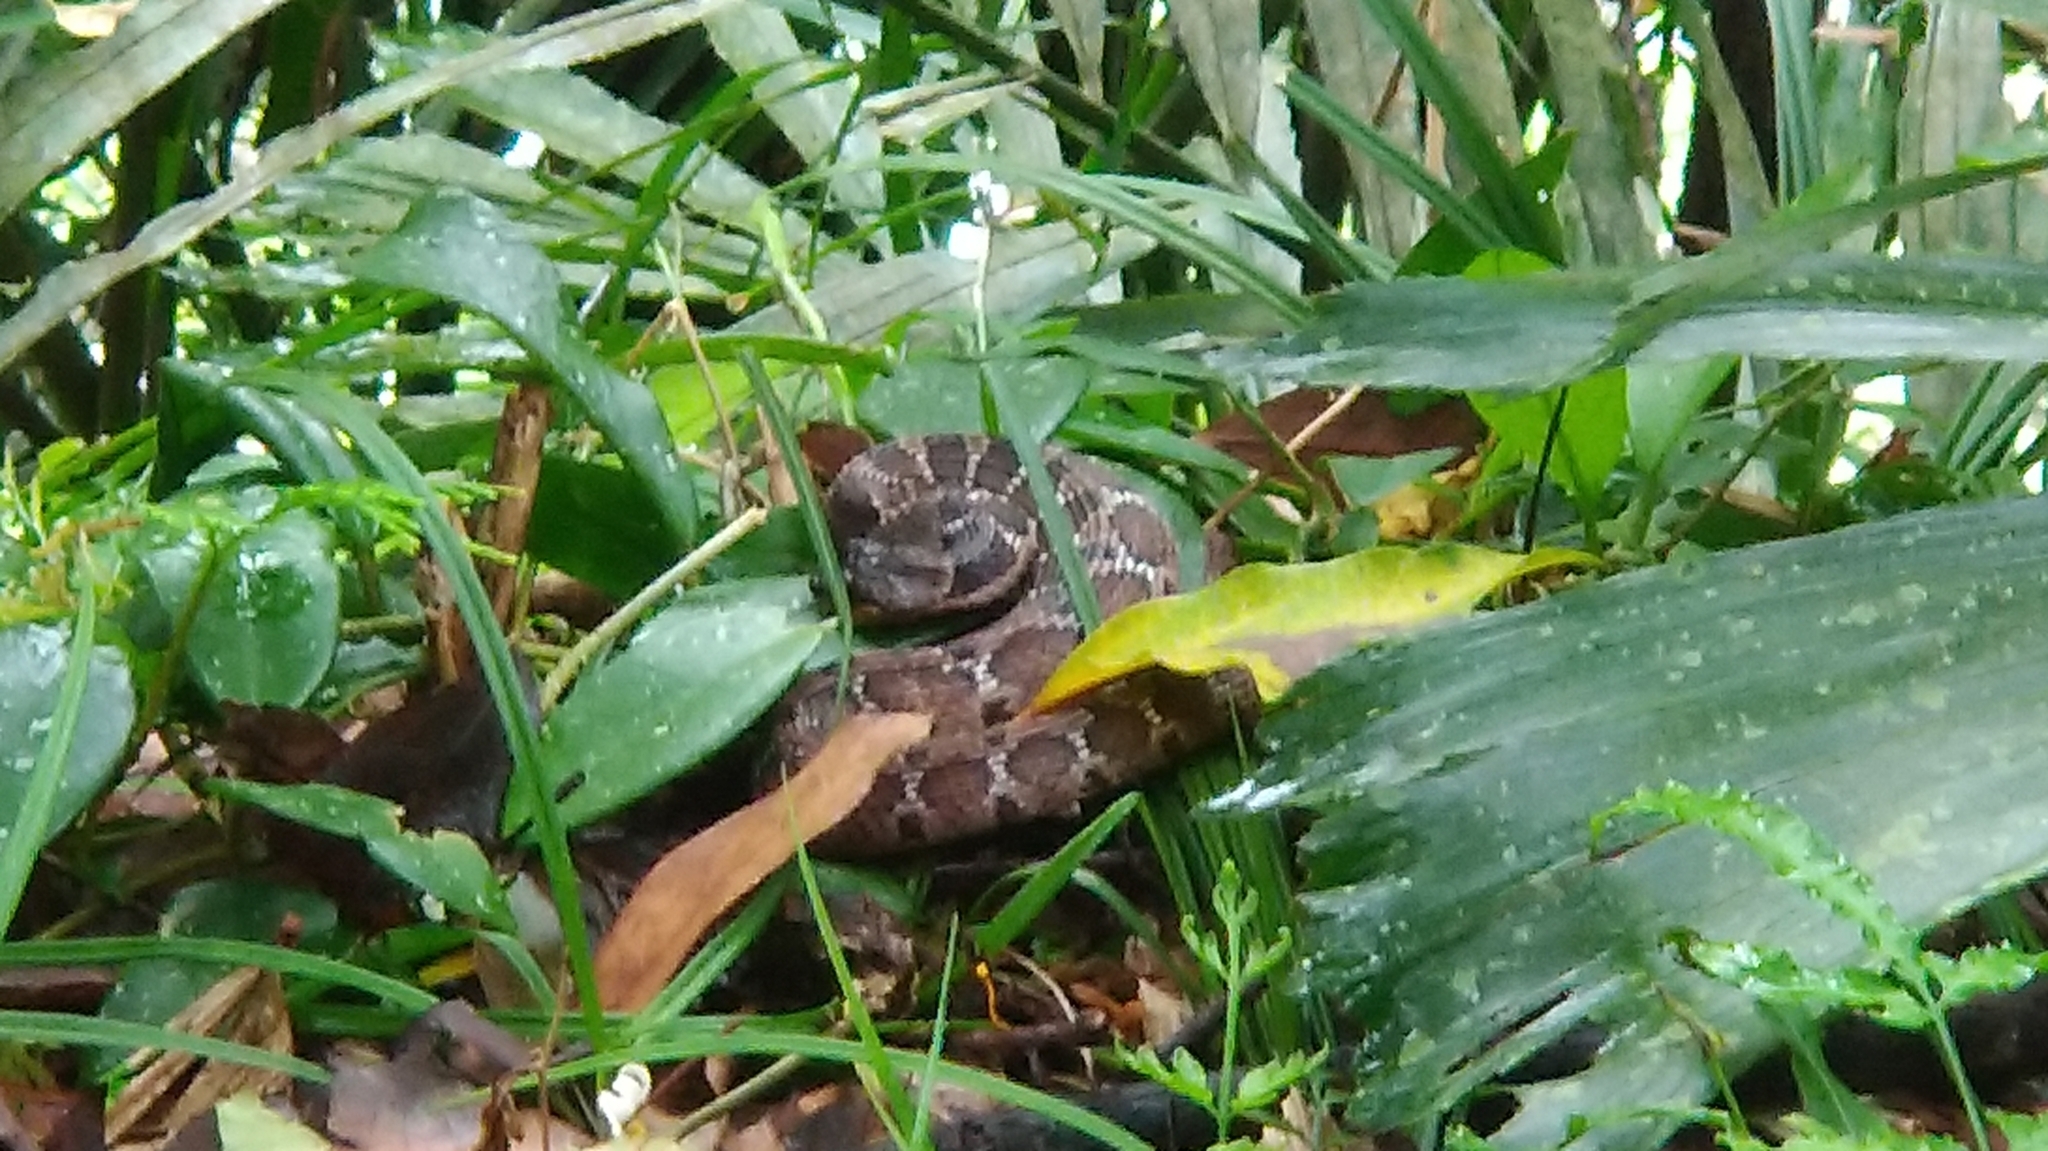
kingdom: Animalia
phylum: Chordata
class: Squamata
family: Colubridae
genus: Pseudagkistrodon
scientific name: Pseudagkistrodon rudis
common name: False habu
